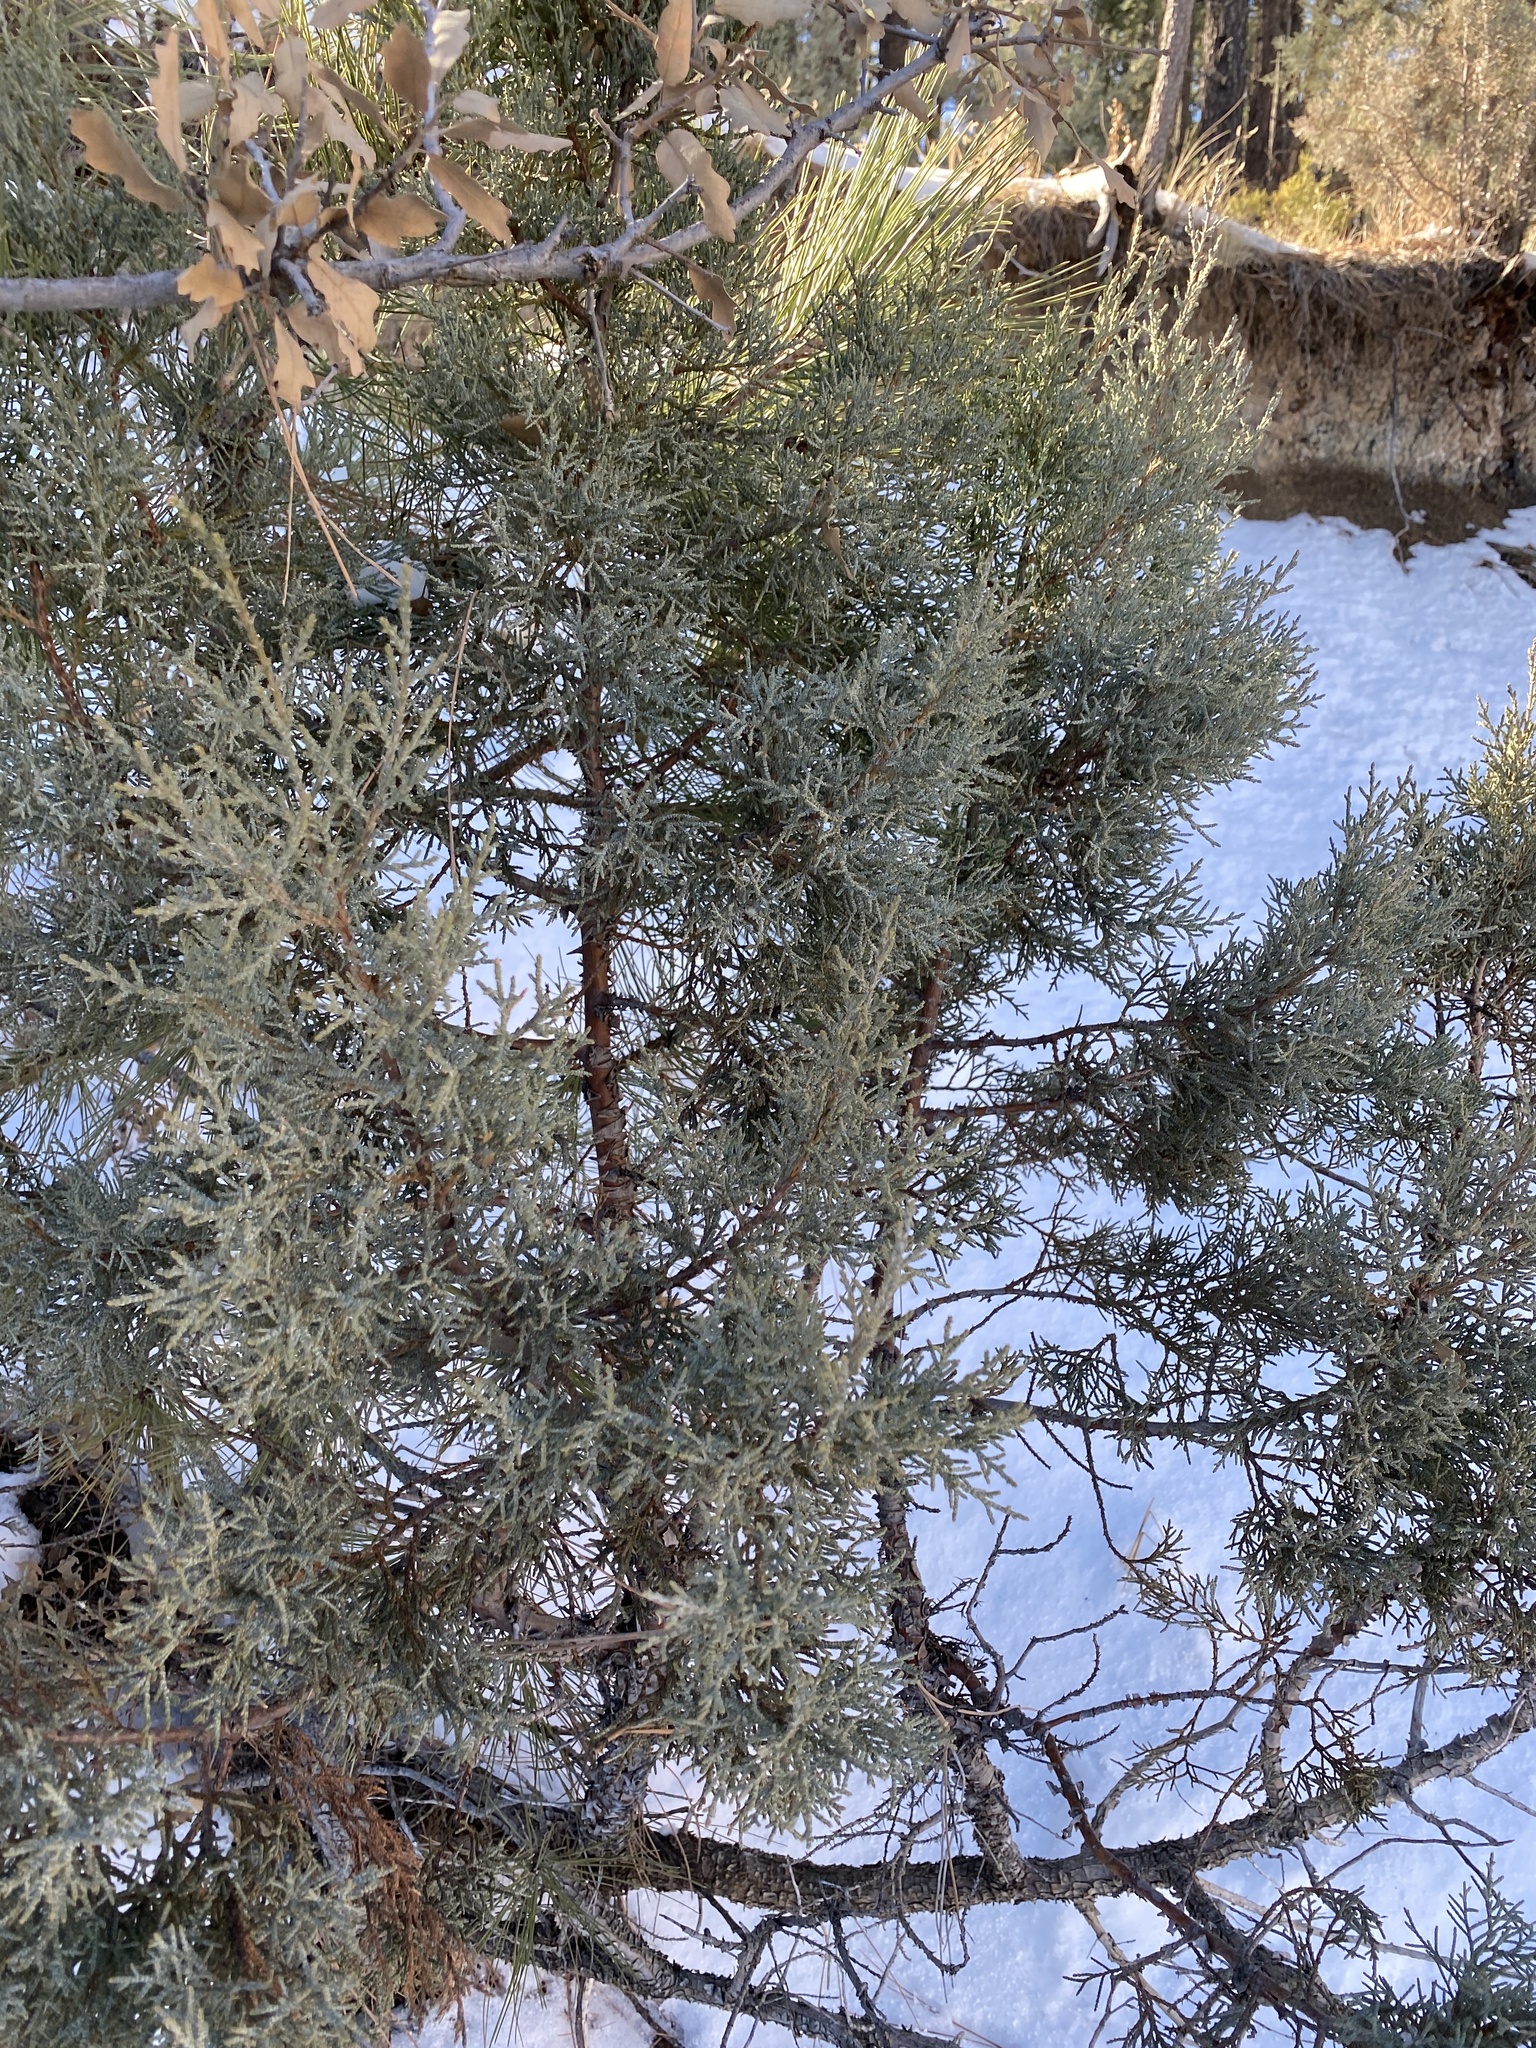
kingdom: Plantae
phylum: Tracheophyta
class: Pinopsida
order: Pinales
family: Cupressaceae
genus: Juniperus
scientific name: Juniperus deppeana
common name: Alligator juniper
